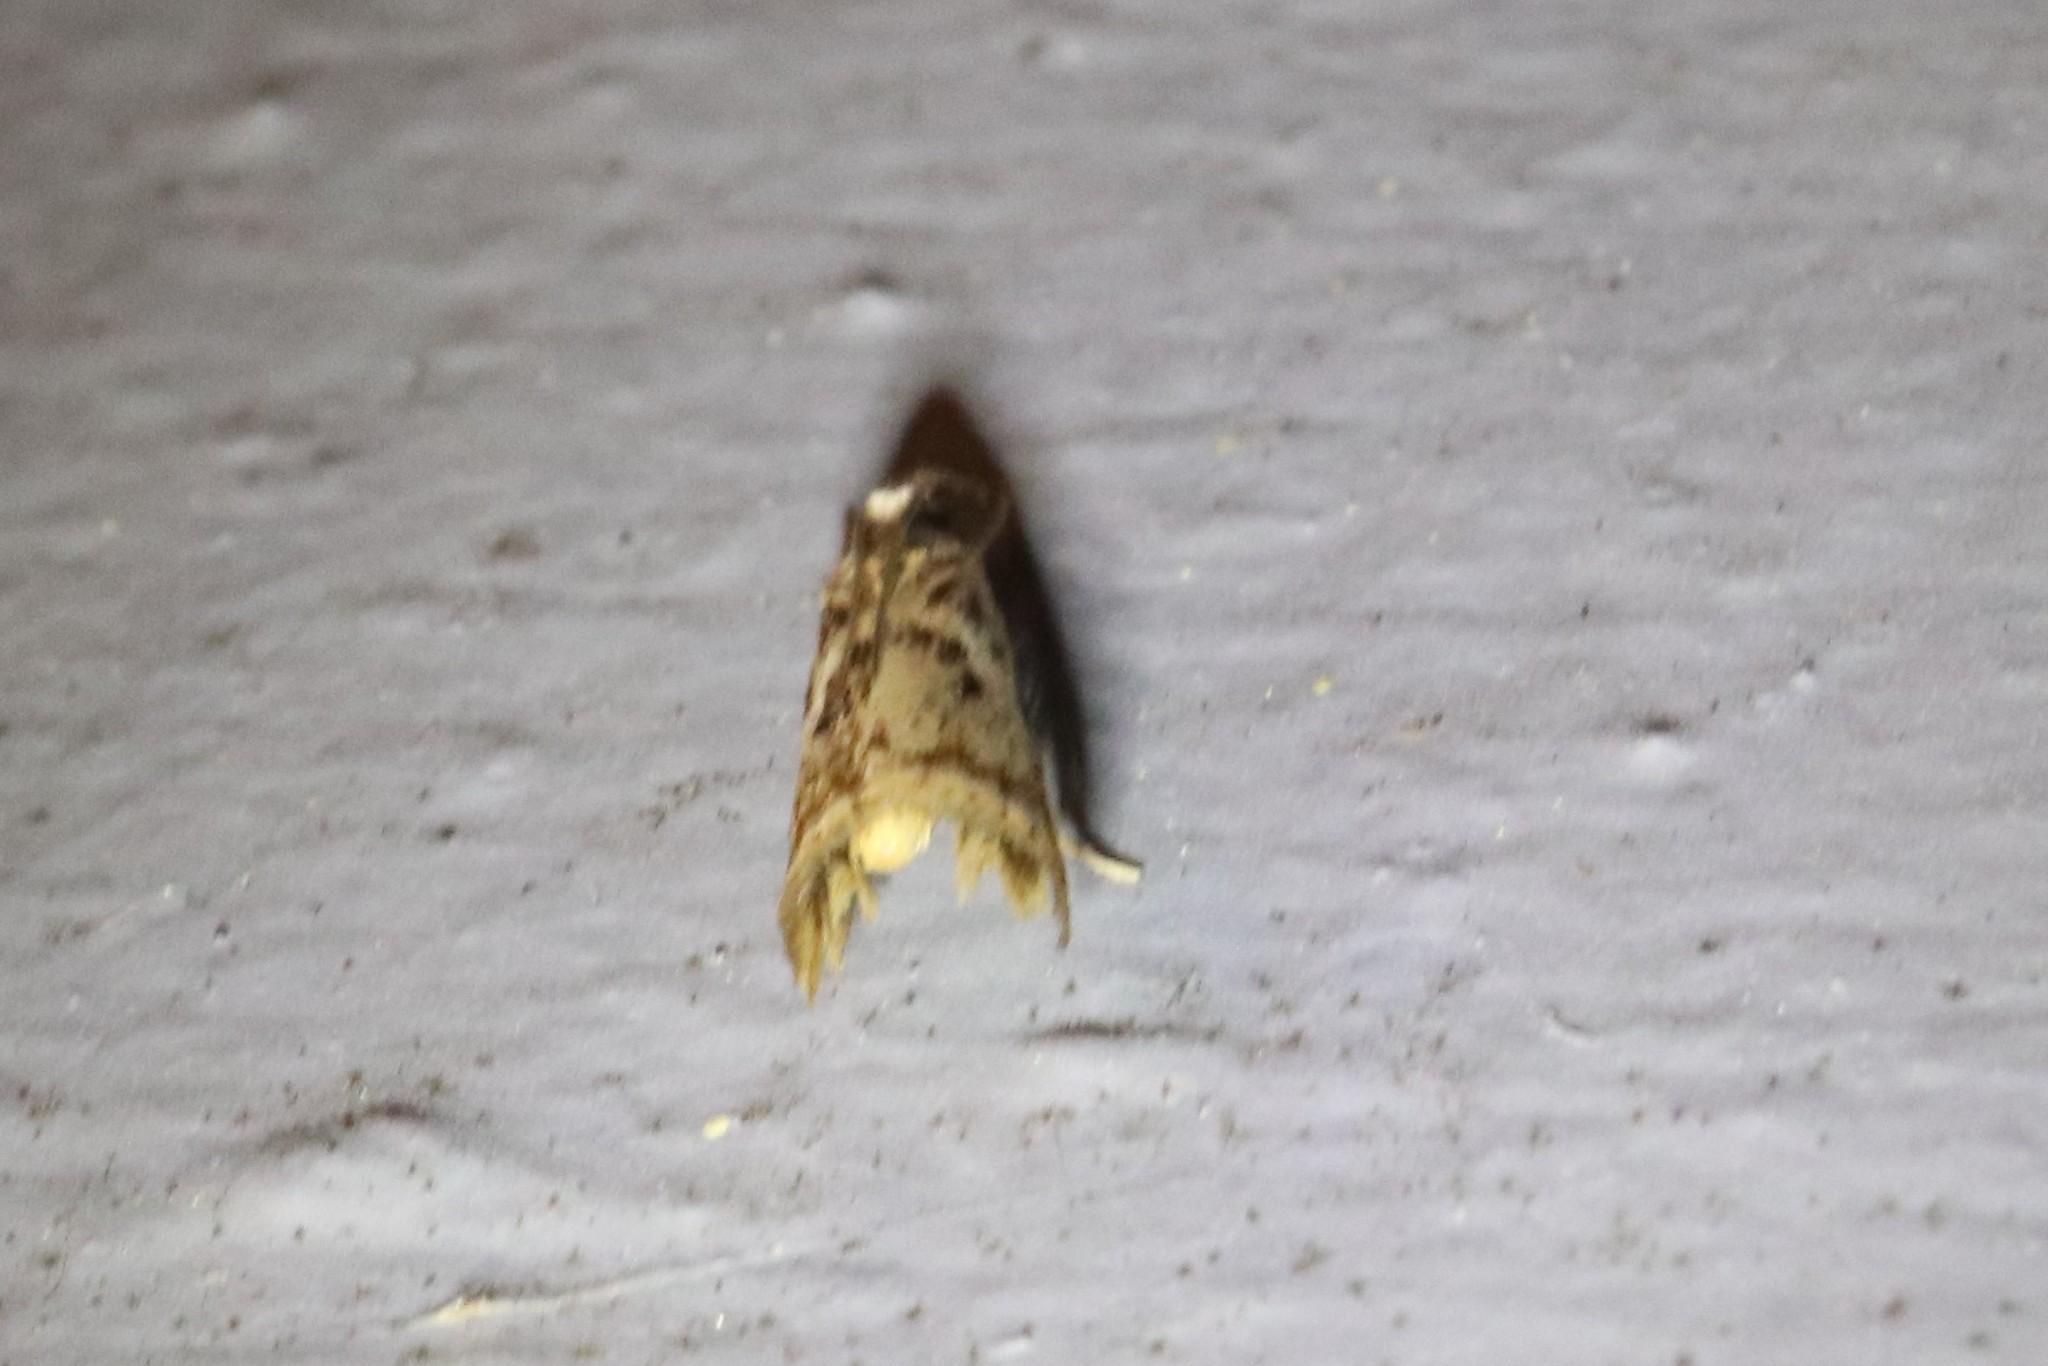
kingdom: Animalia
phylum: Arthropoda
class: Insecta
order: Lepidoptera
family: Crambidae
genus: Microcrambus
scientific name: Microcrambus elegans
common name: Elegant grass-veneer
